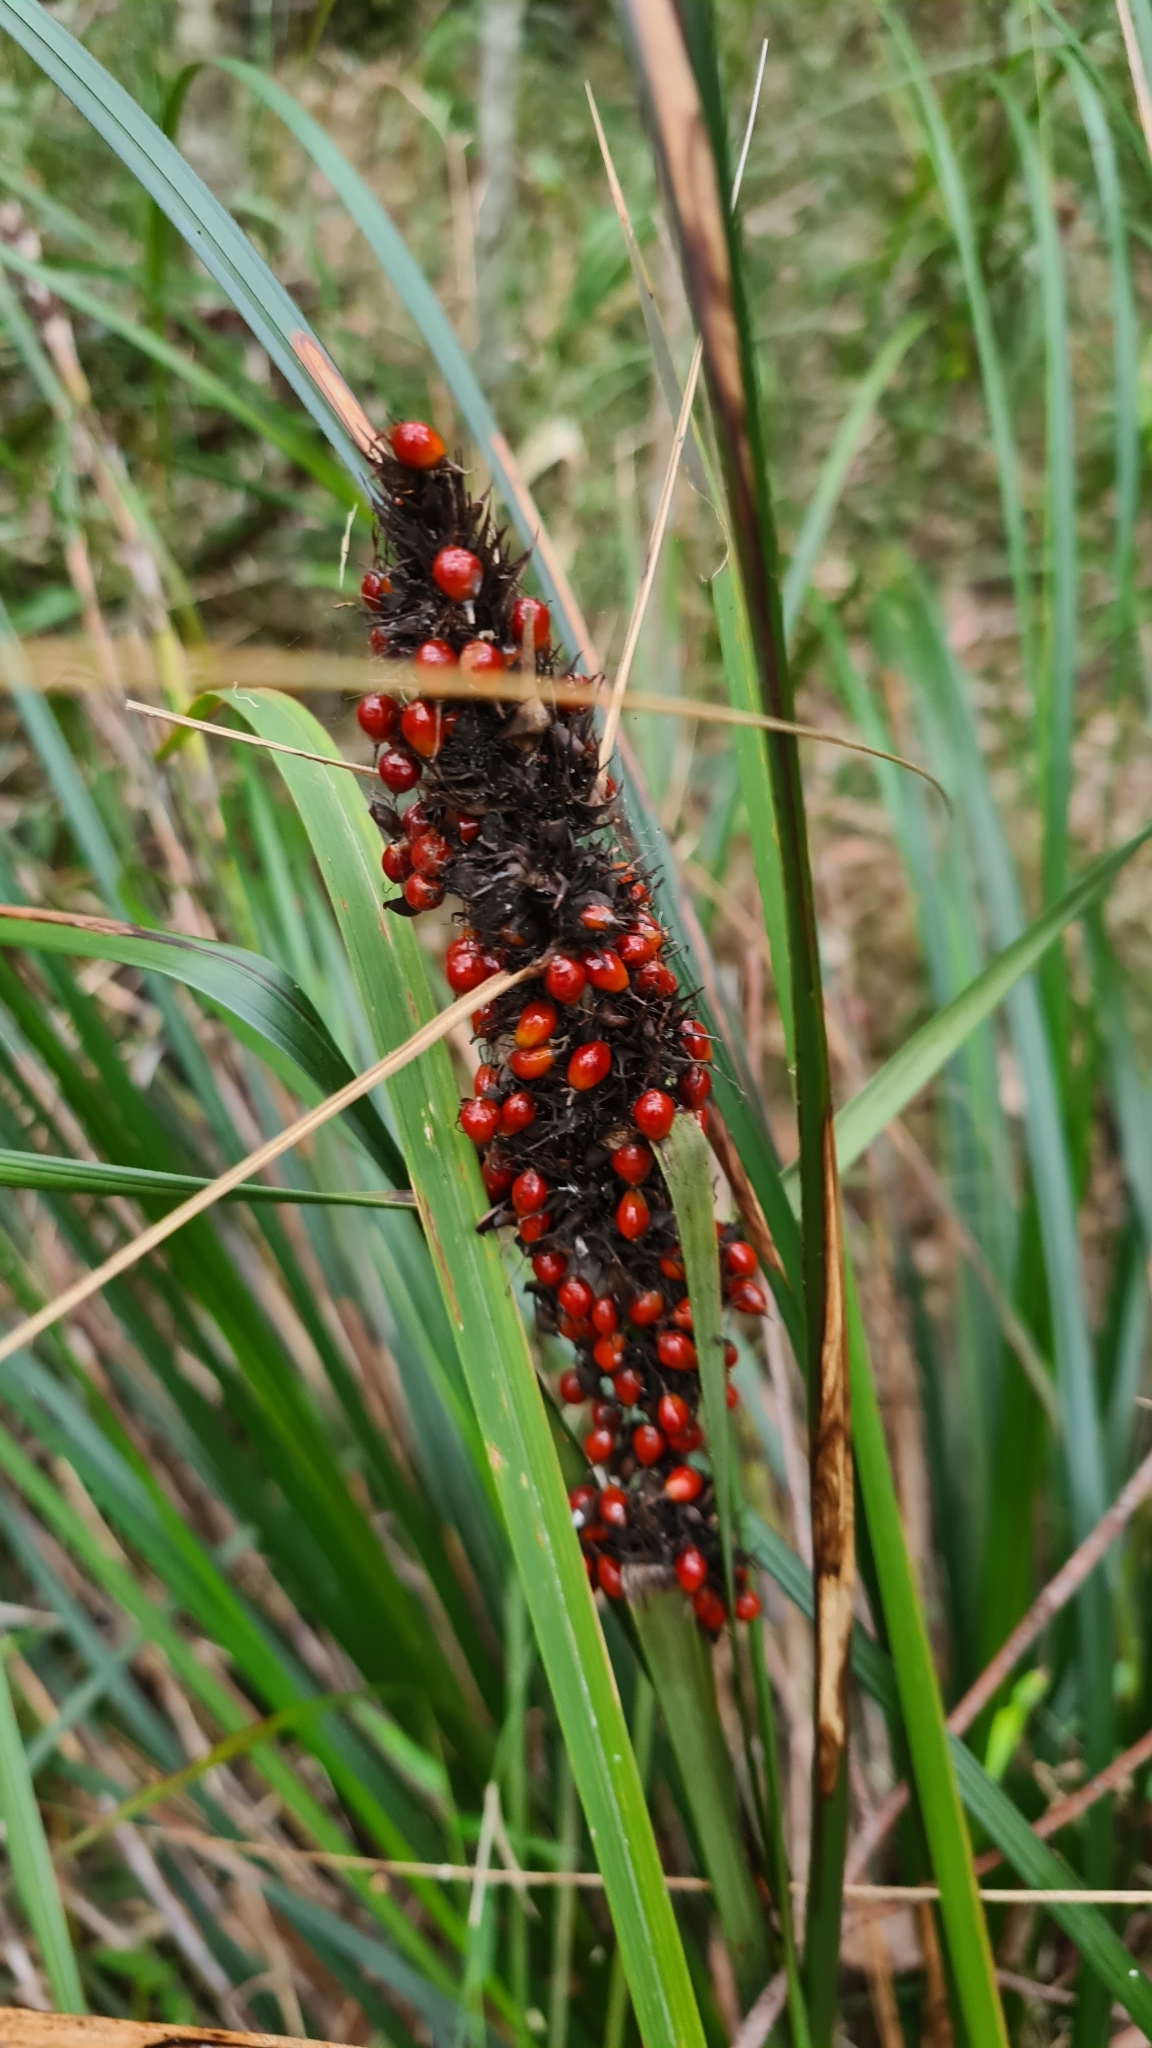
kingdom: Plantae
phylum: Tracheophyta
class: Liliopsida
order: Poales
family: Cyperaceae
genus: Gahnia
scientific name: Gahnia aspera
